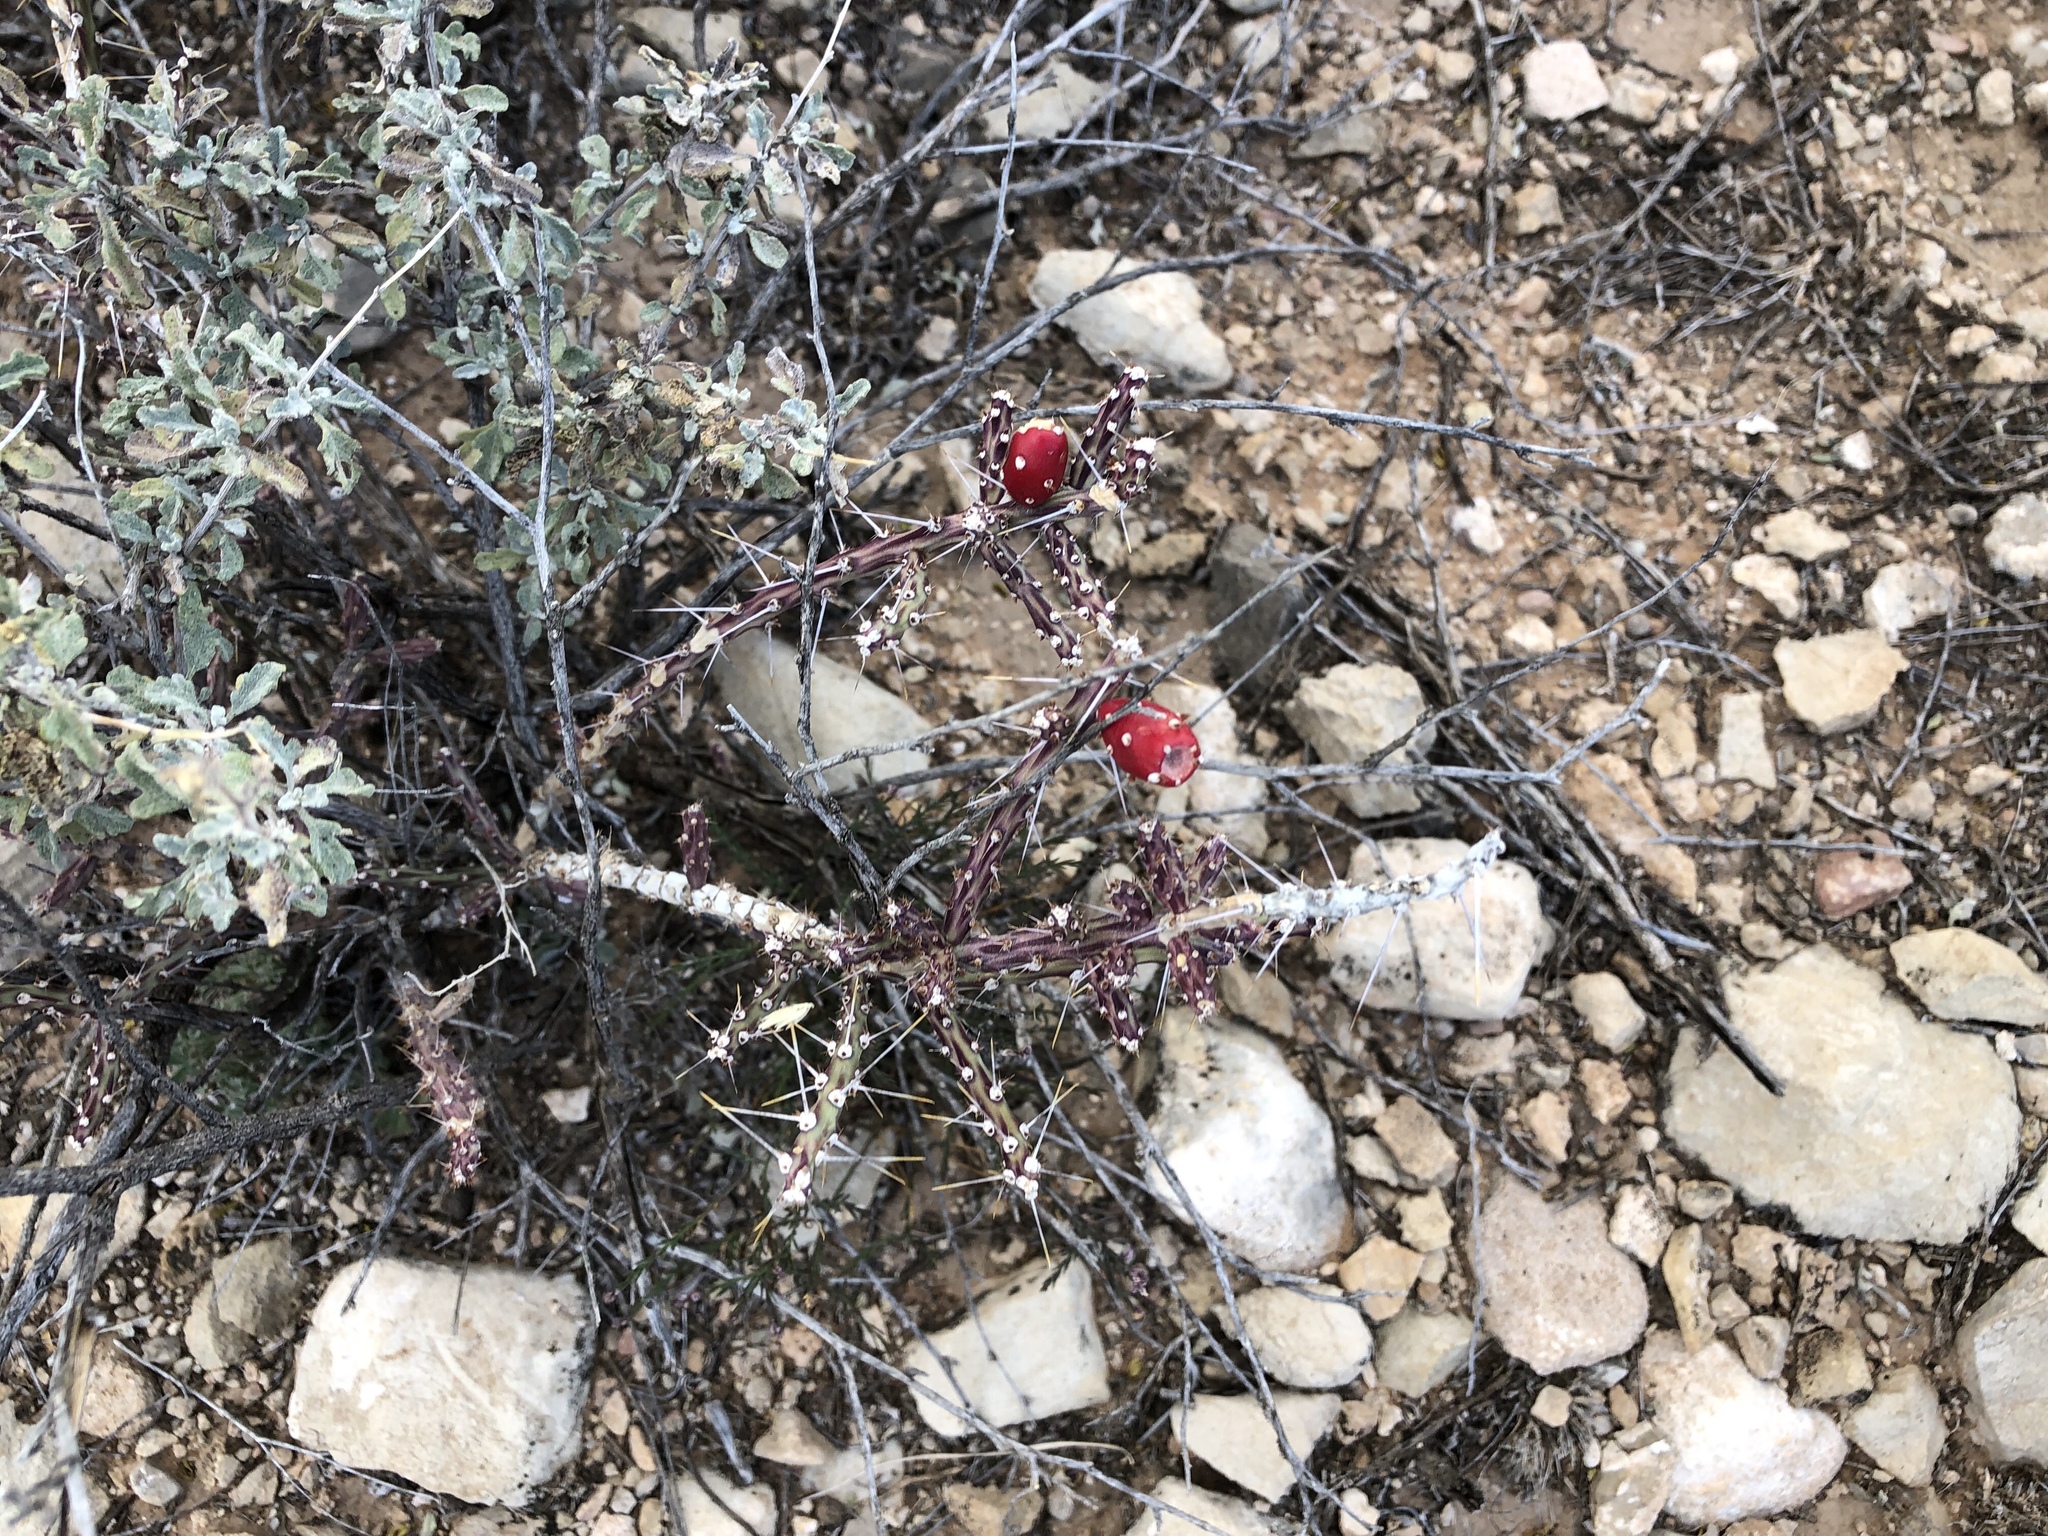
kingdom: Plantae
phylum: Tracheophyta
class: Magnoliopsida
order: Caryophyllales
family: Cactaceae
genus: Cylindropuntia
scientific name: Cylindropuntia leptocaulis
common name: Christmas cactus
